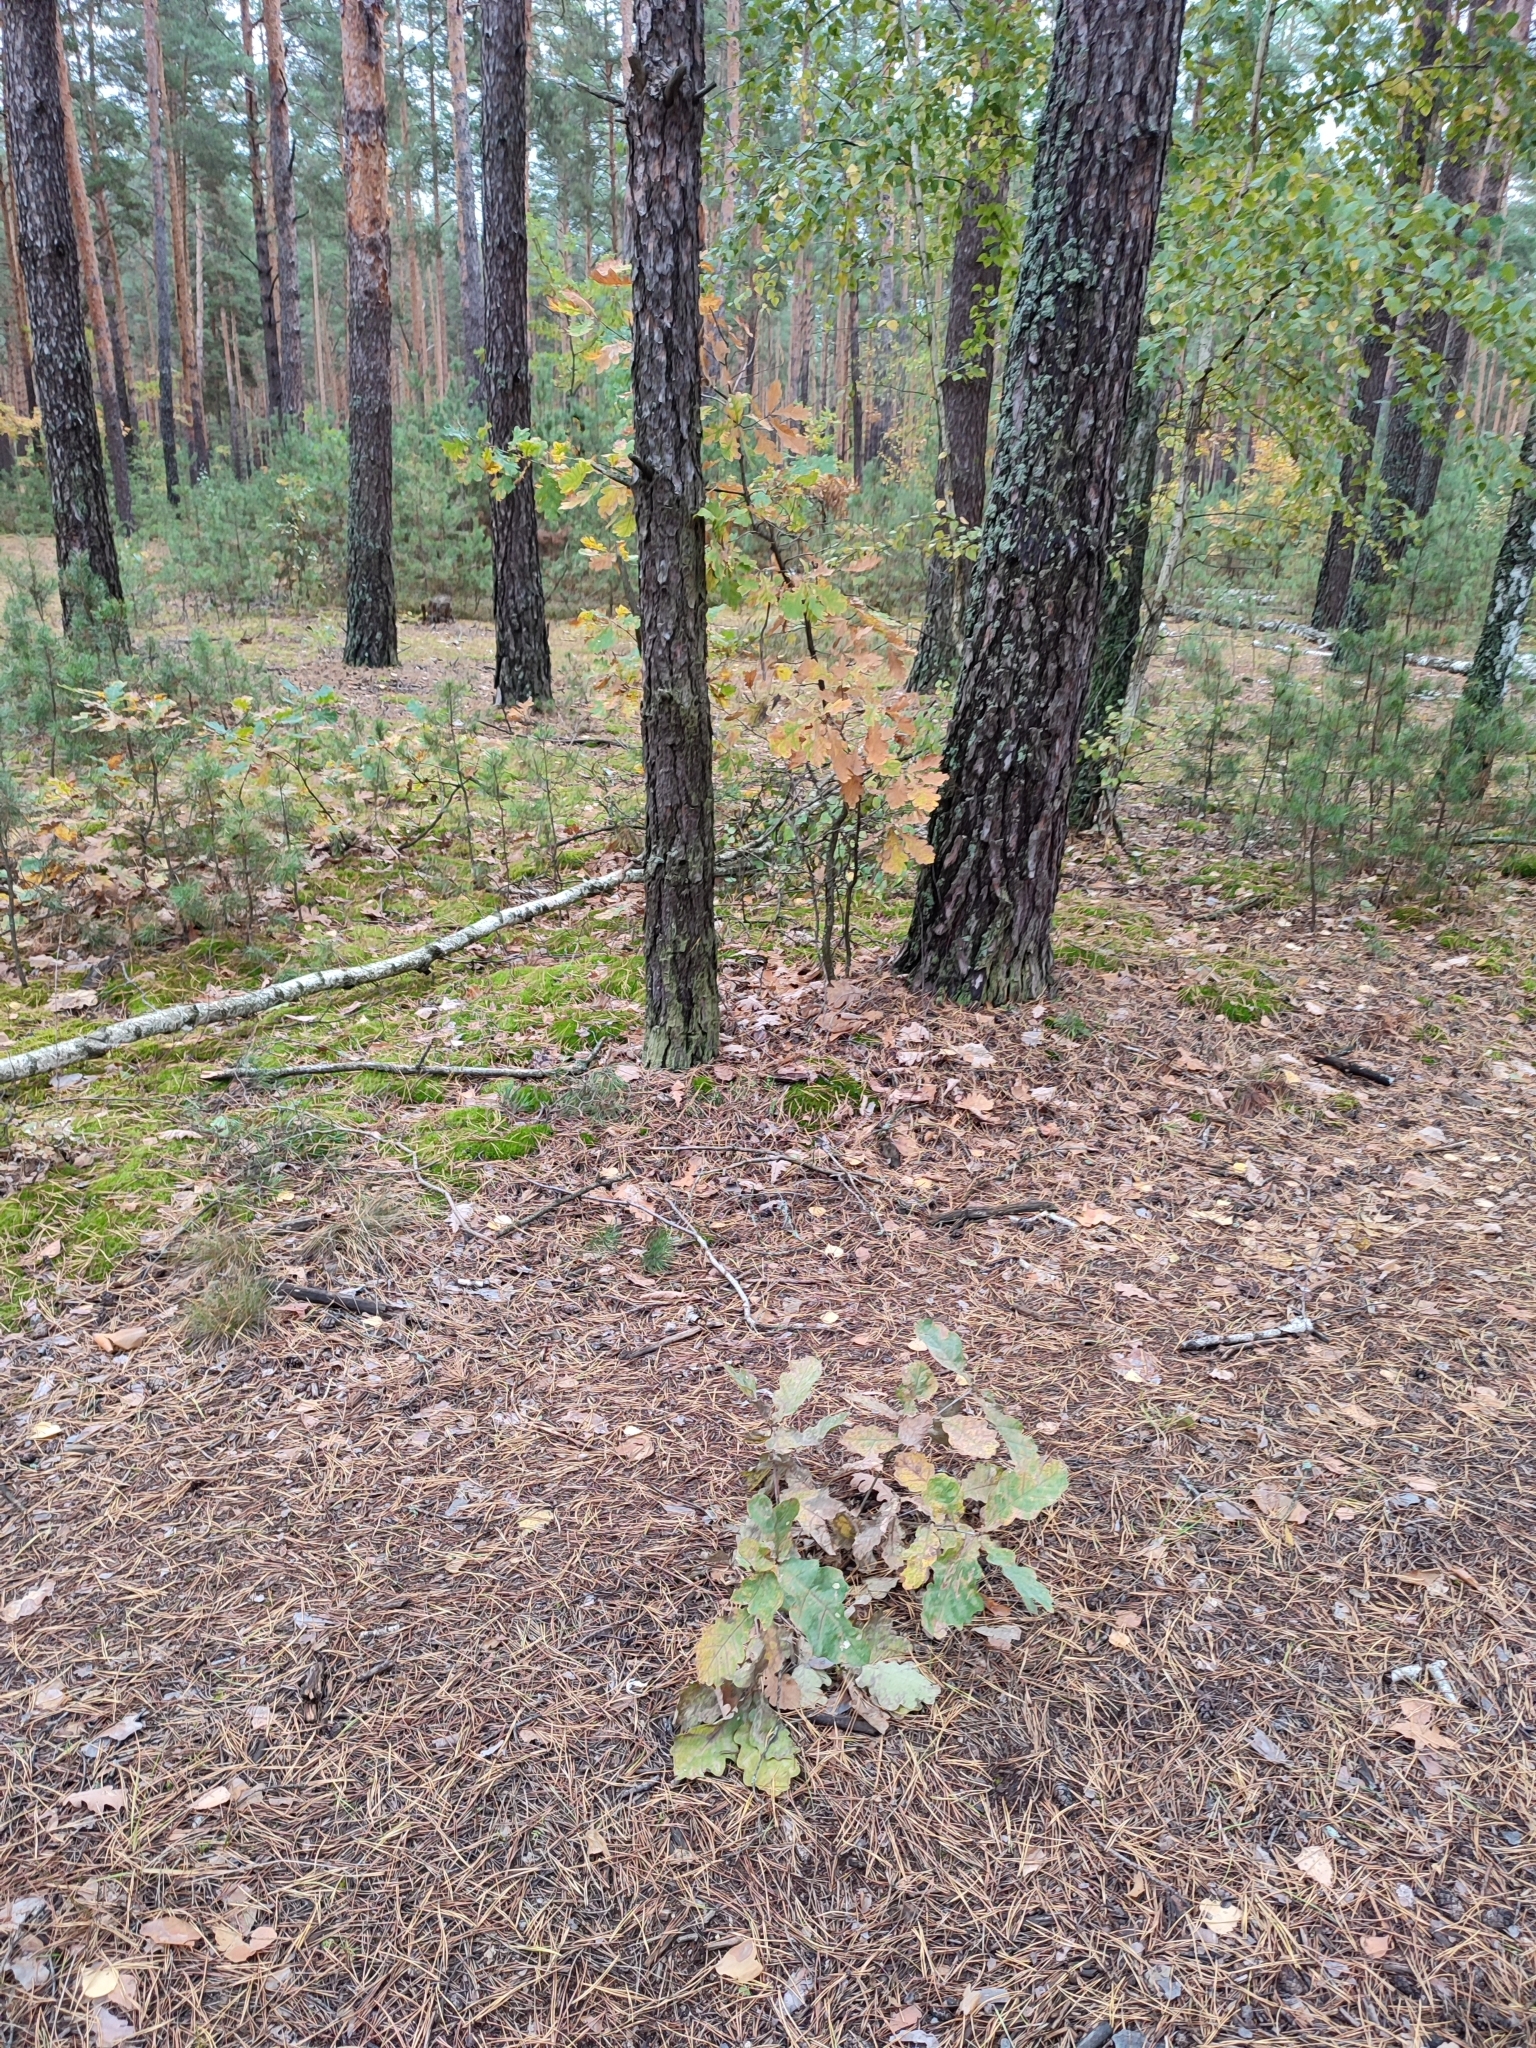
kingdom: Plantae
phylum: Tracheophyta
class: Magnoliopsida
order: Fagales
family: Fagaceae
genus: Quercus
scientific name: Quercus robur
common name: Pedunculate oak
